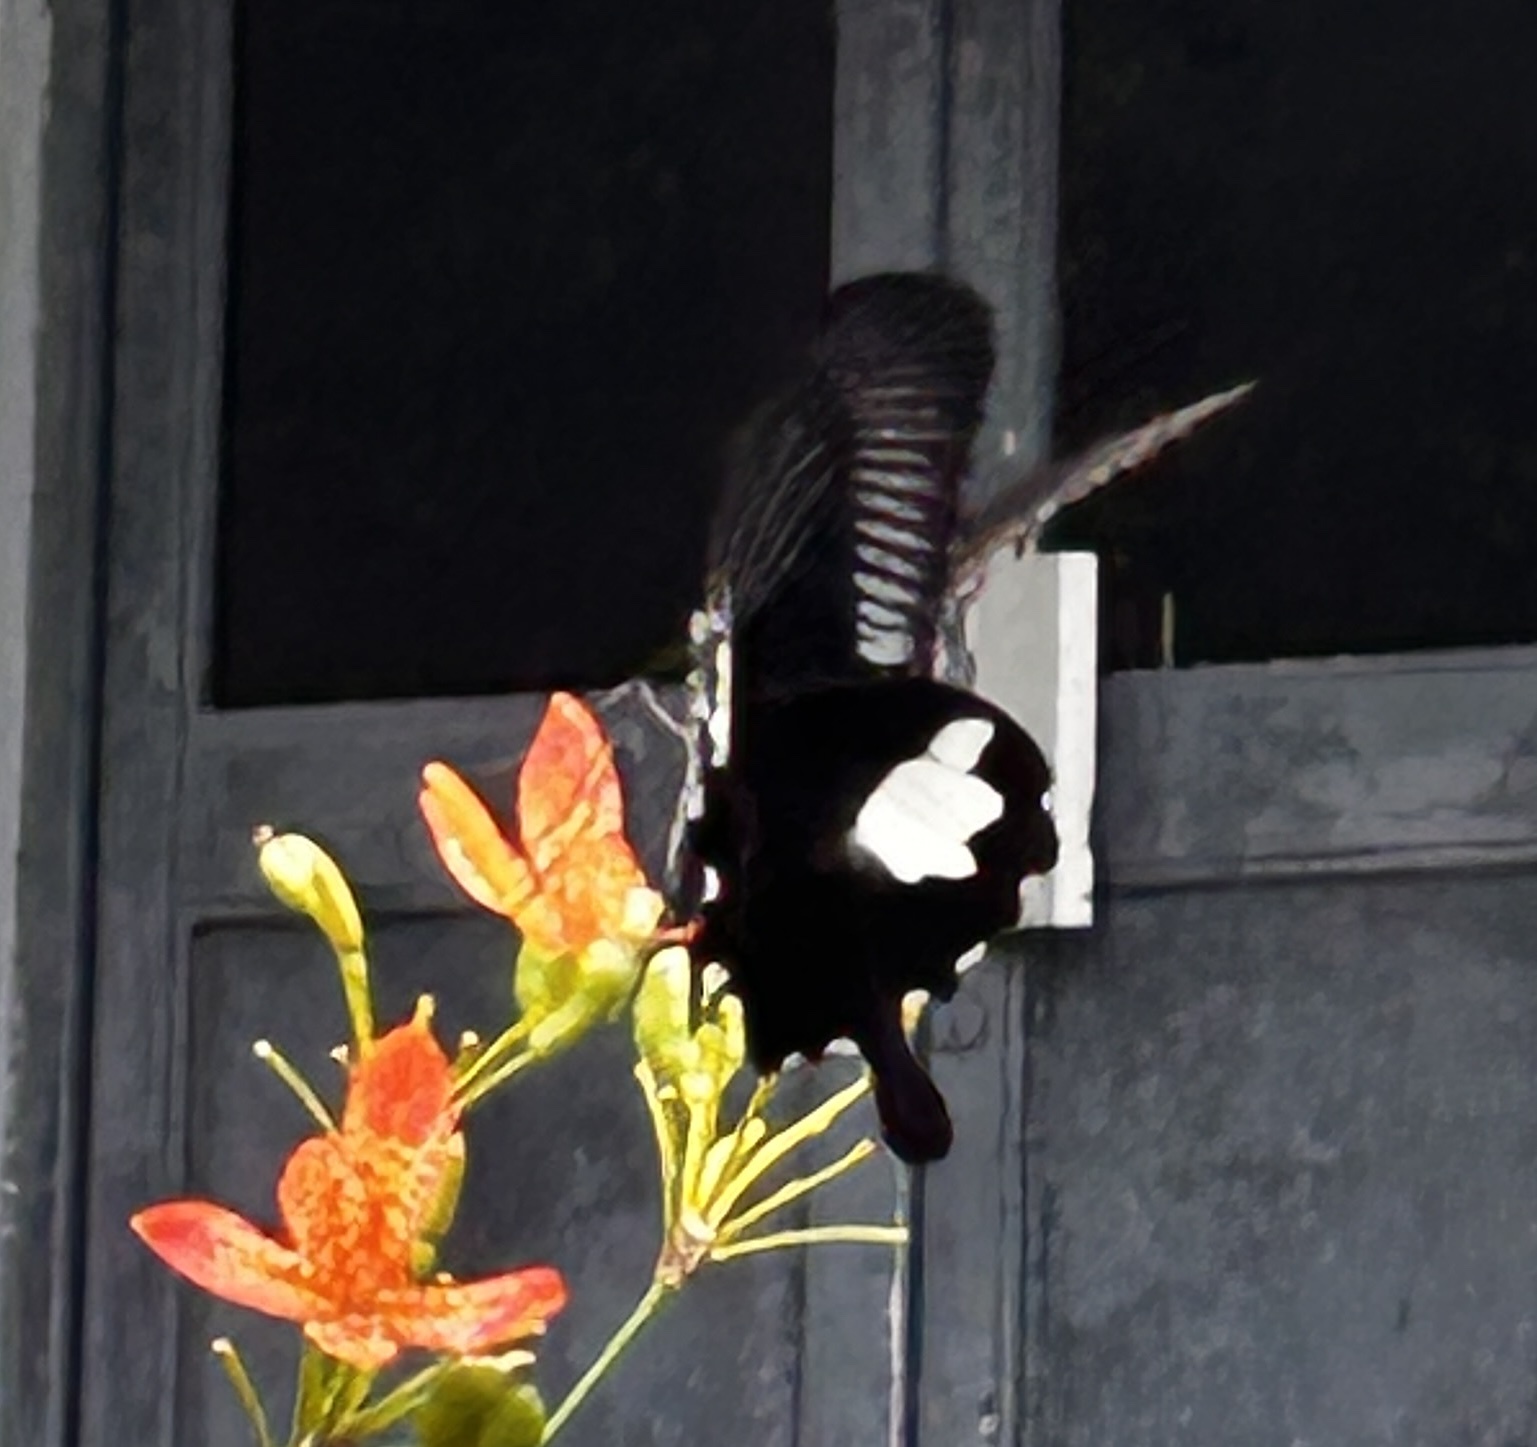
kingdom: Animalia
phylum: Arthropoda
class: Insecta
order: Lepidoptera
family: Papilionidae
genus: Papilio
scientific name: Papilio helenus
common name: Red helen
